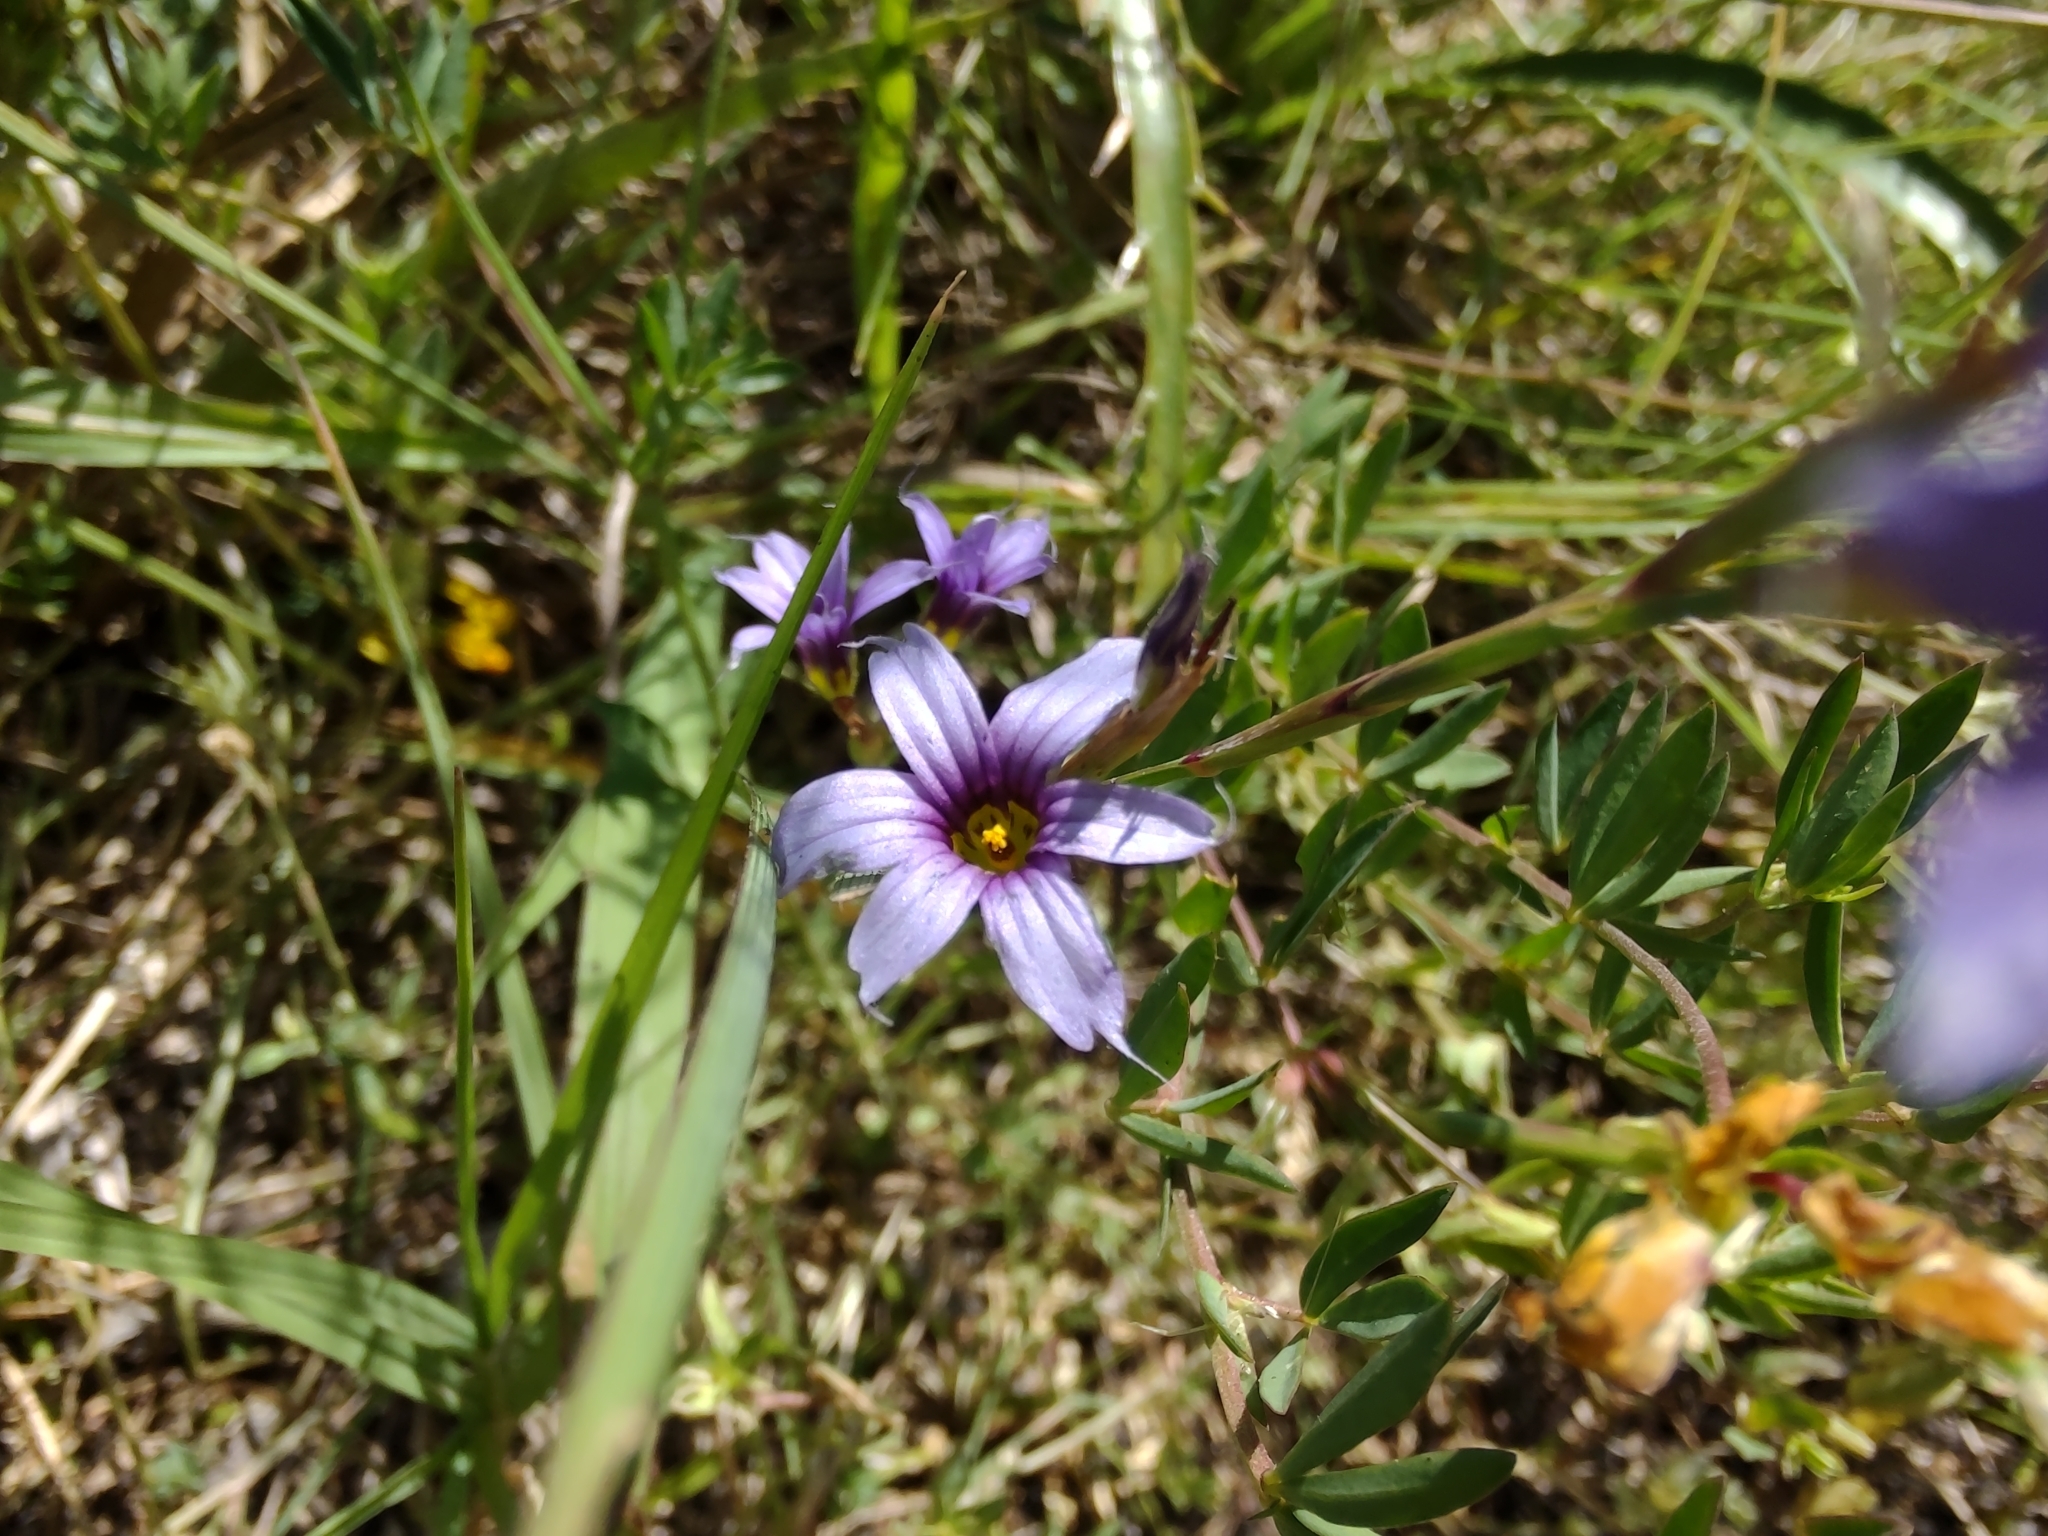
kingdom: Plantae
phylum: Tracheophyta
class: Liliopsida
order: Asparagales
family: Iridaceae
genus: Sisyrinchium
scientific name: Sisyrinchium platense
